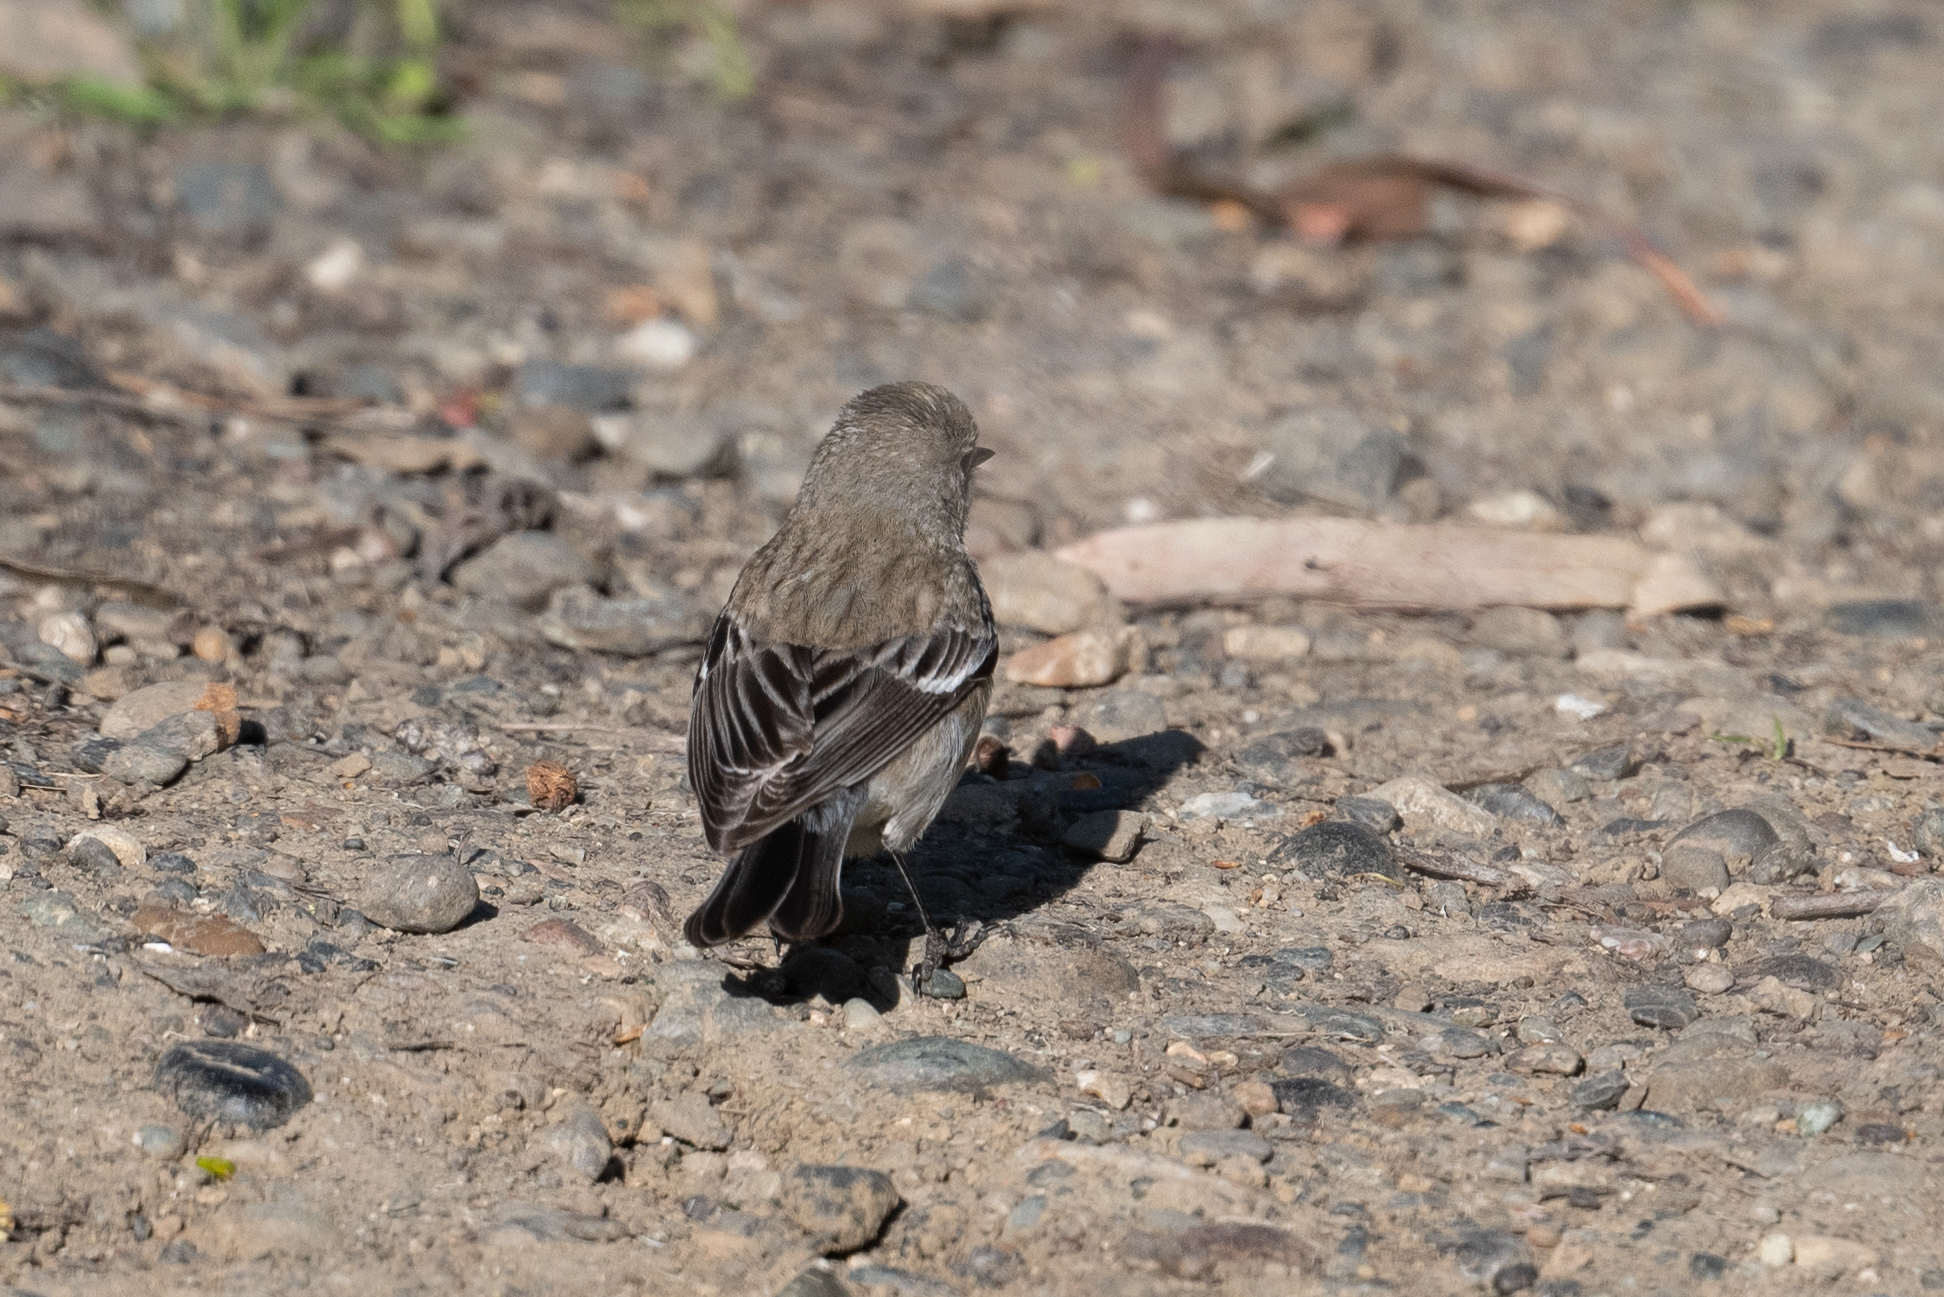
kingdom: Animalia
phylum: Chordata
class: Aves
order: Passeriformes
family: Parulidae
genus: Setophaga
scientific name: Setophaga coronata
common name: Myrtle warbler
